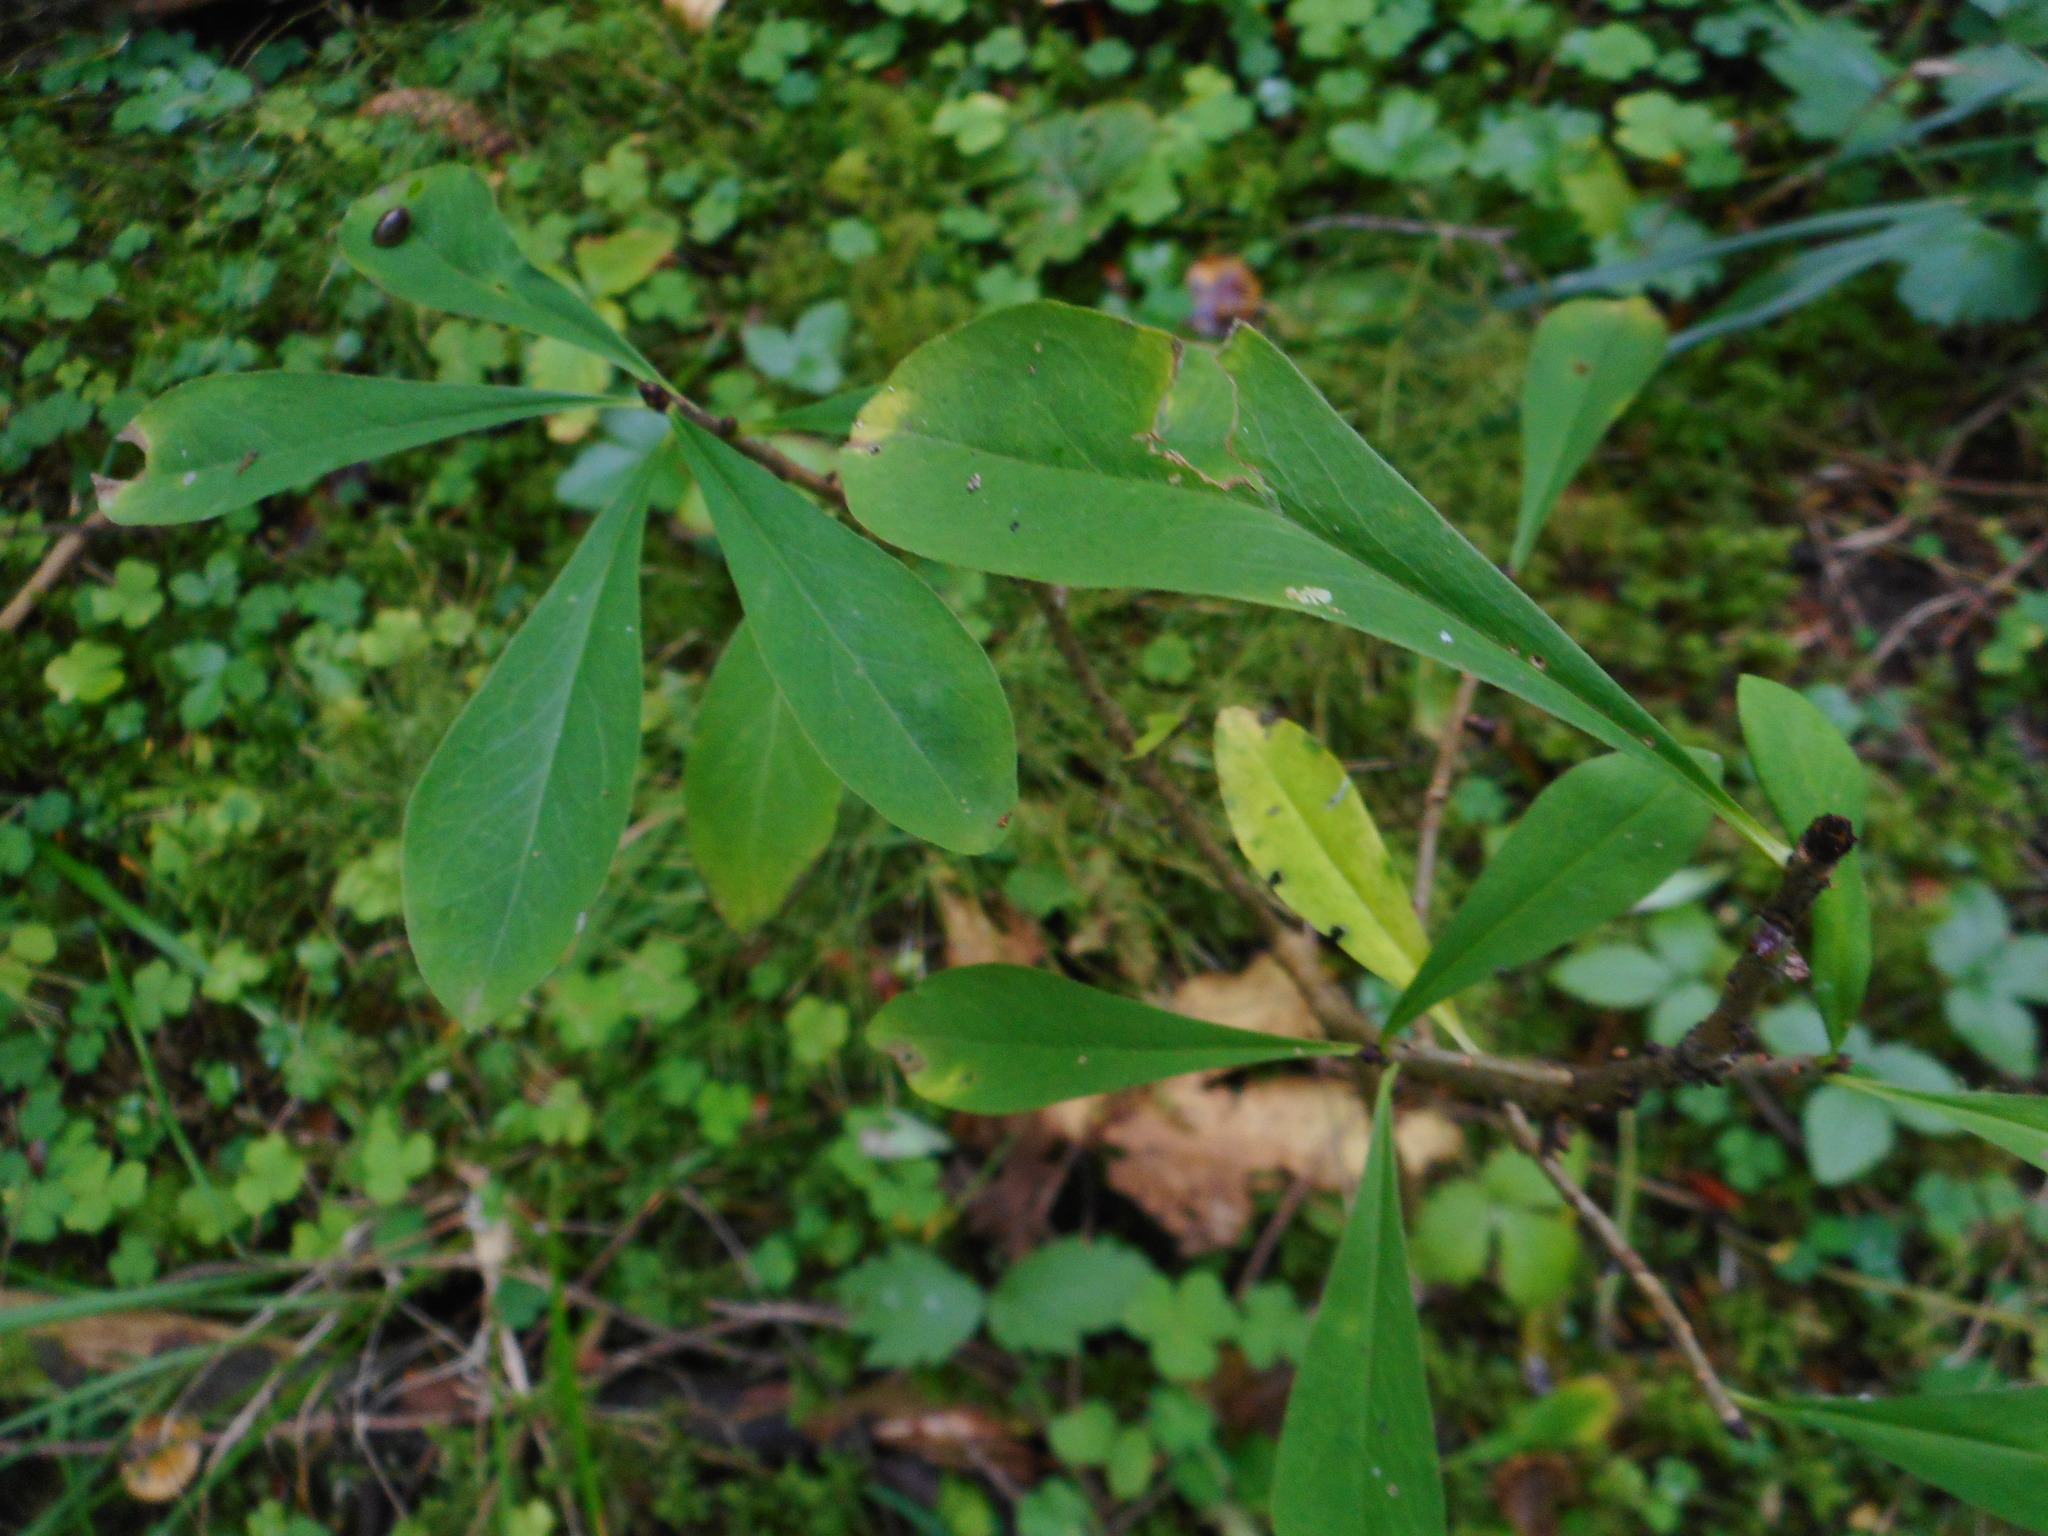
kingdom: Plantae
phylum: Tracheophyta
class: Magnoliopsida
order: Malvales
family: Thymelaeaceae
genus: Daphne
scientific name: Daphne mezereum
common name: Mezereon
